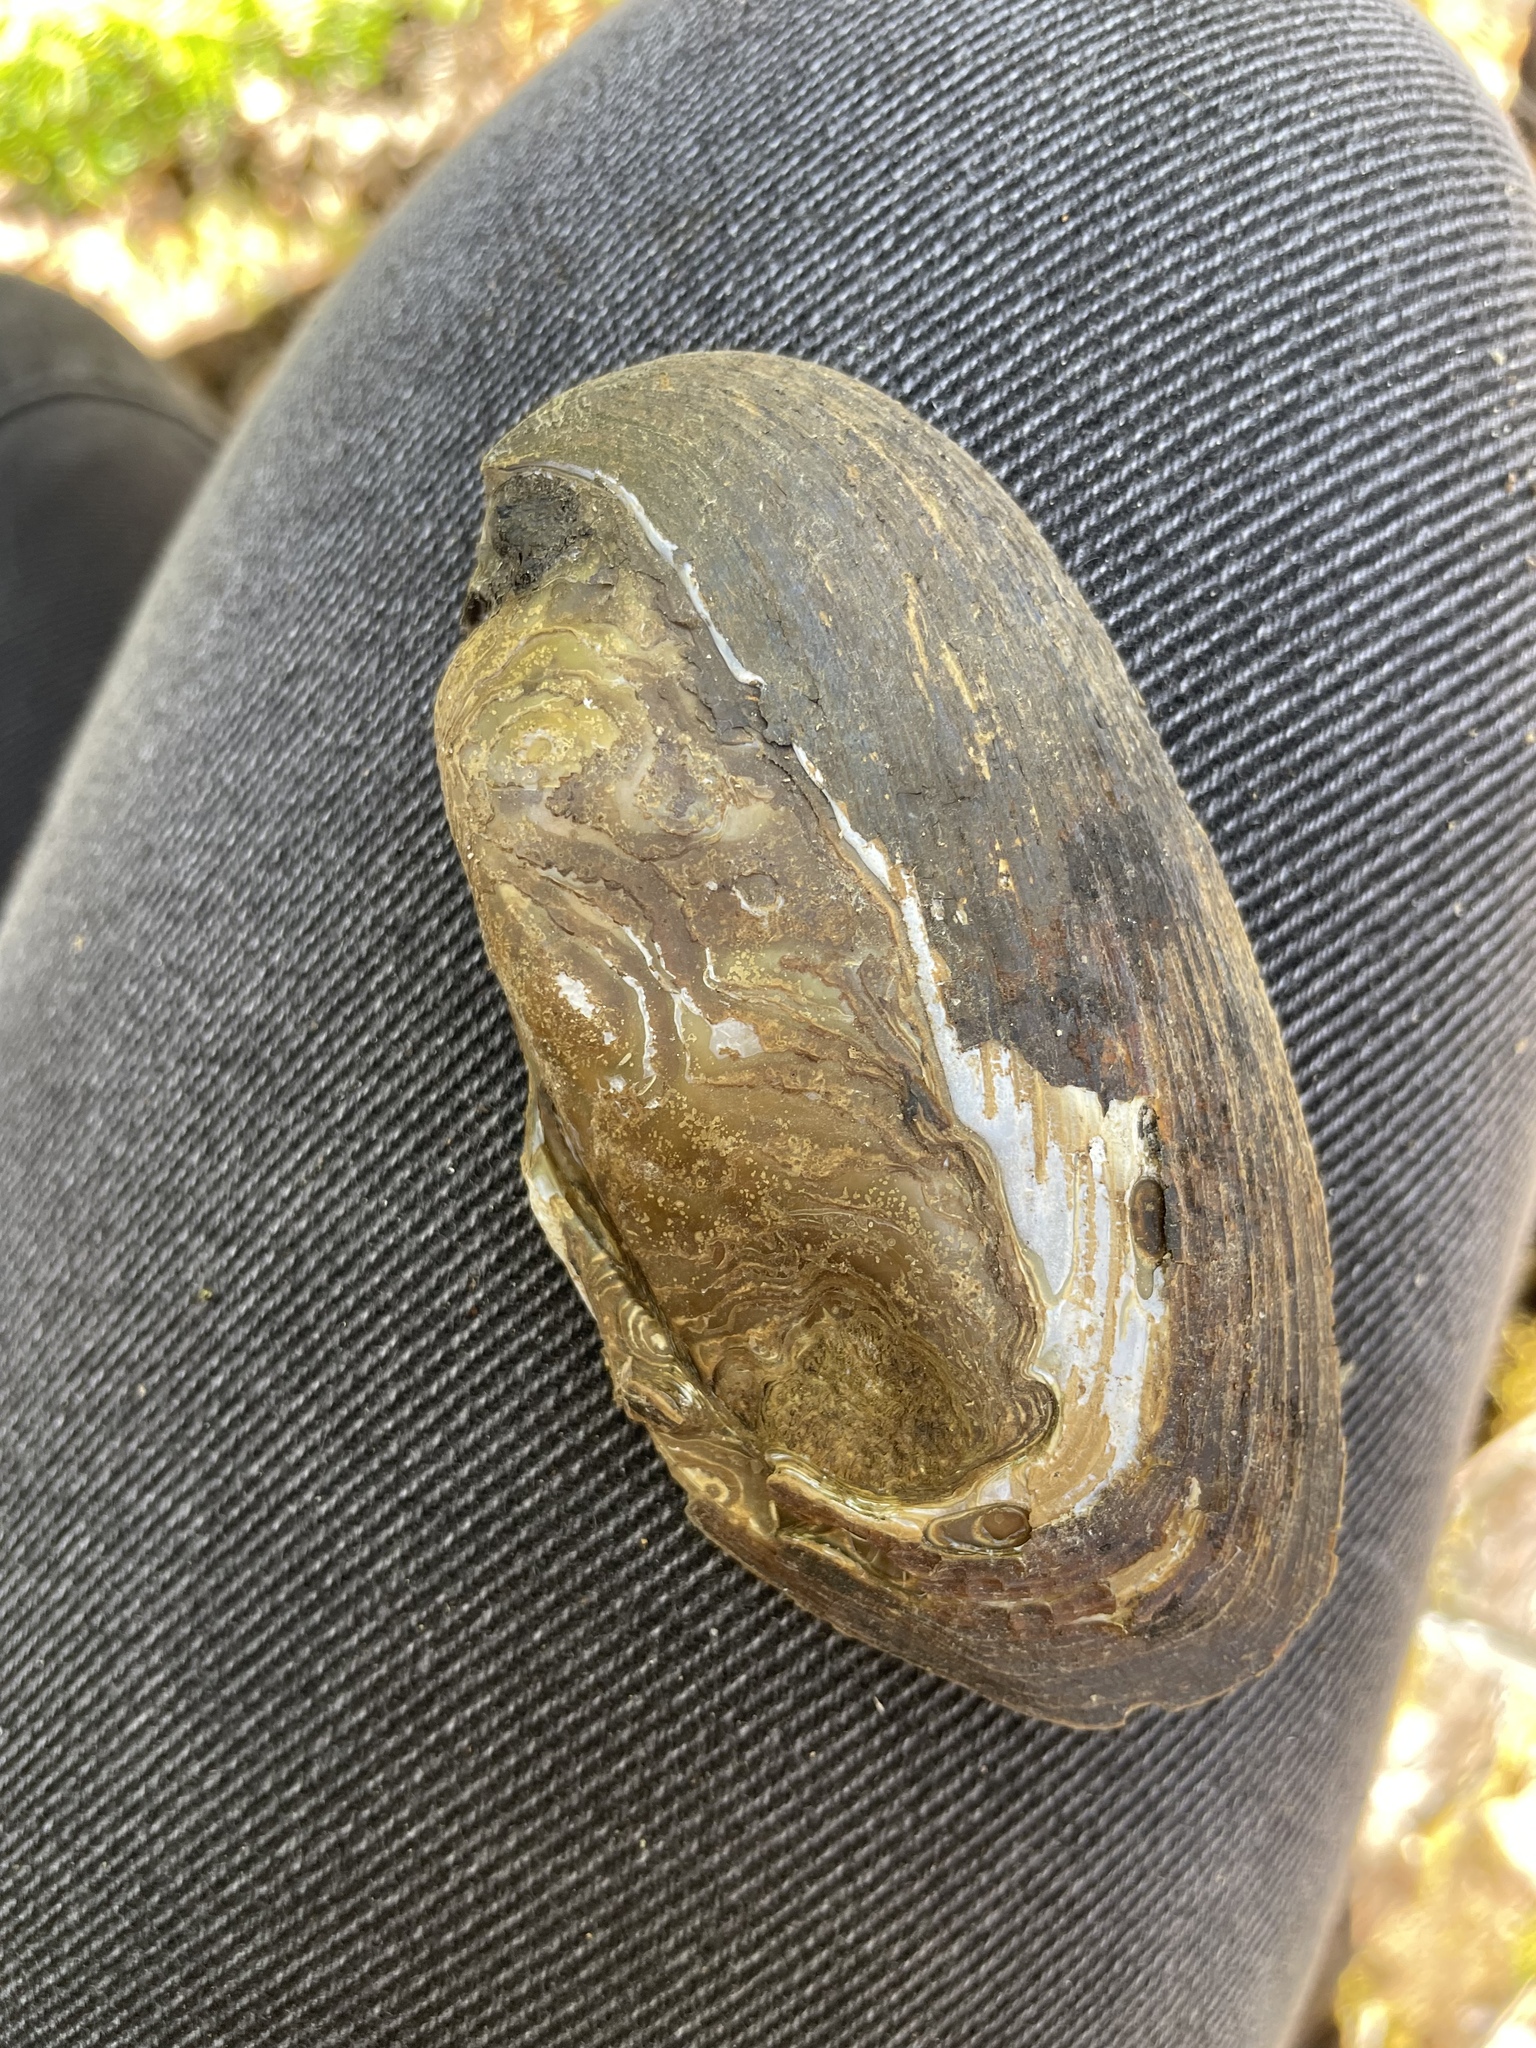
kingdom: Animalia
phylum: Mollusca
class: Bivalvia
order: Unionida
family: Unionidae
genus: Elliptio
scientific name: Elliptio complanata
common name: Eastern elliptio
